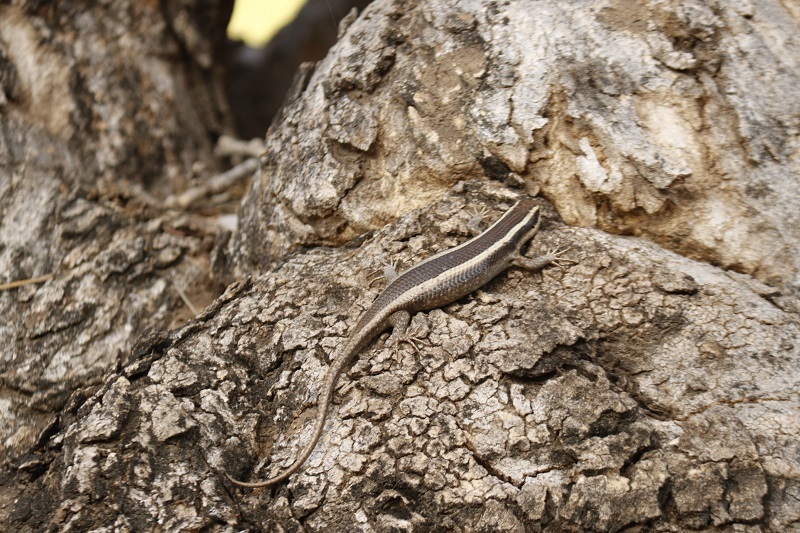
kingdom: Animalia
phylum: Chordata
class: Squamata
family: Scincidae
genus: Trachylepis
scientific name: Trachylepis striata
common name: African striped mabuya
